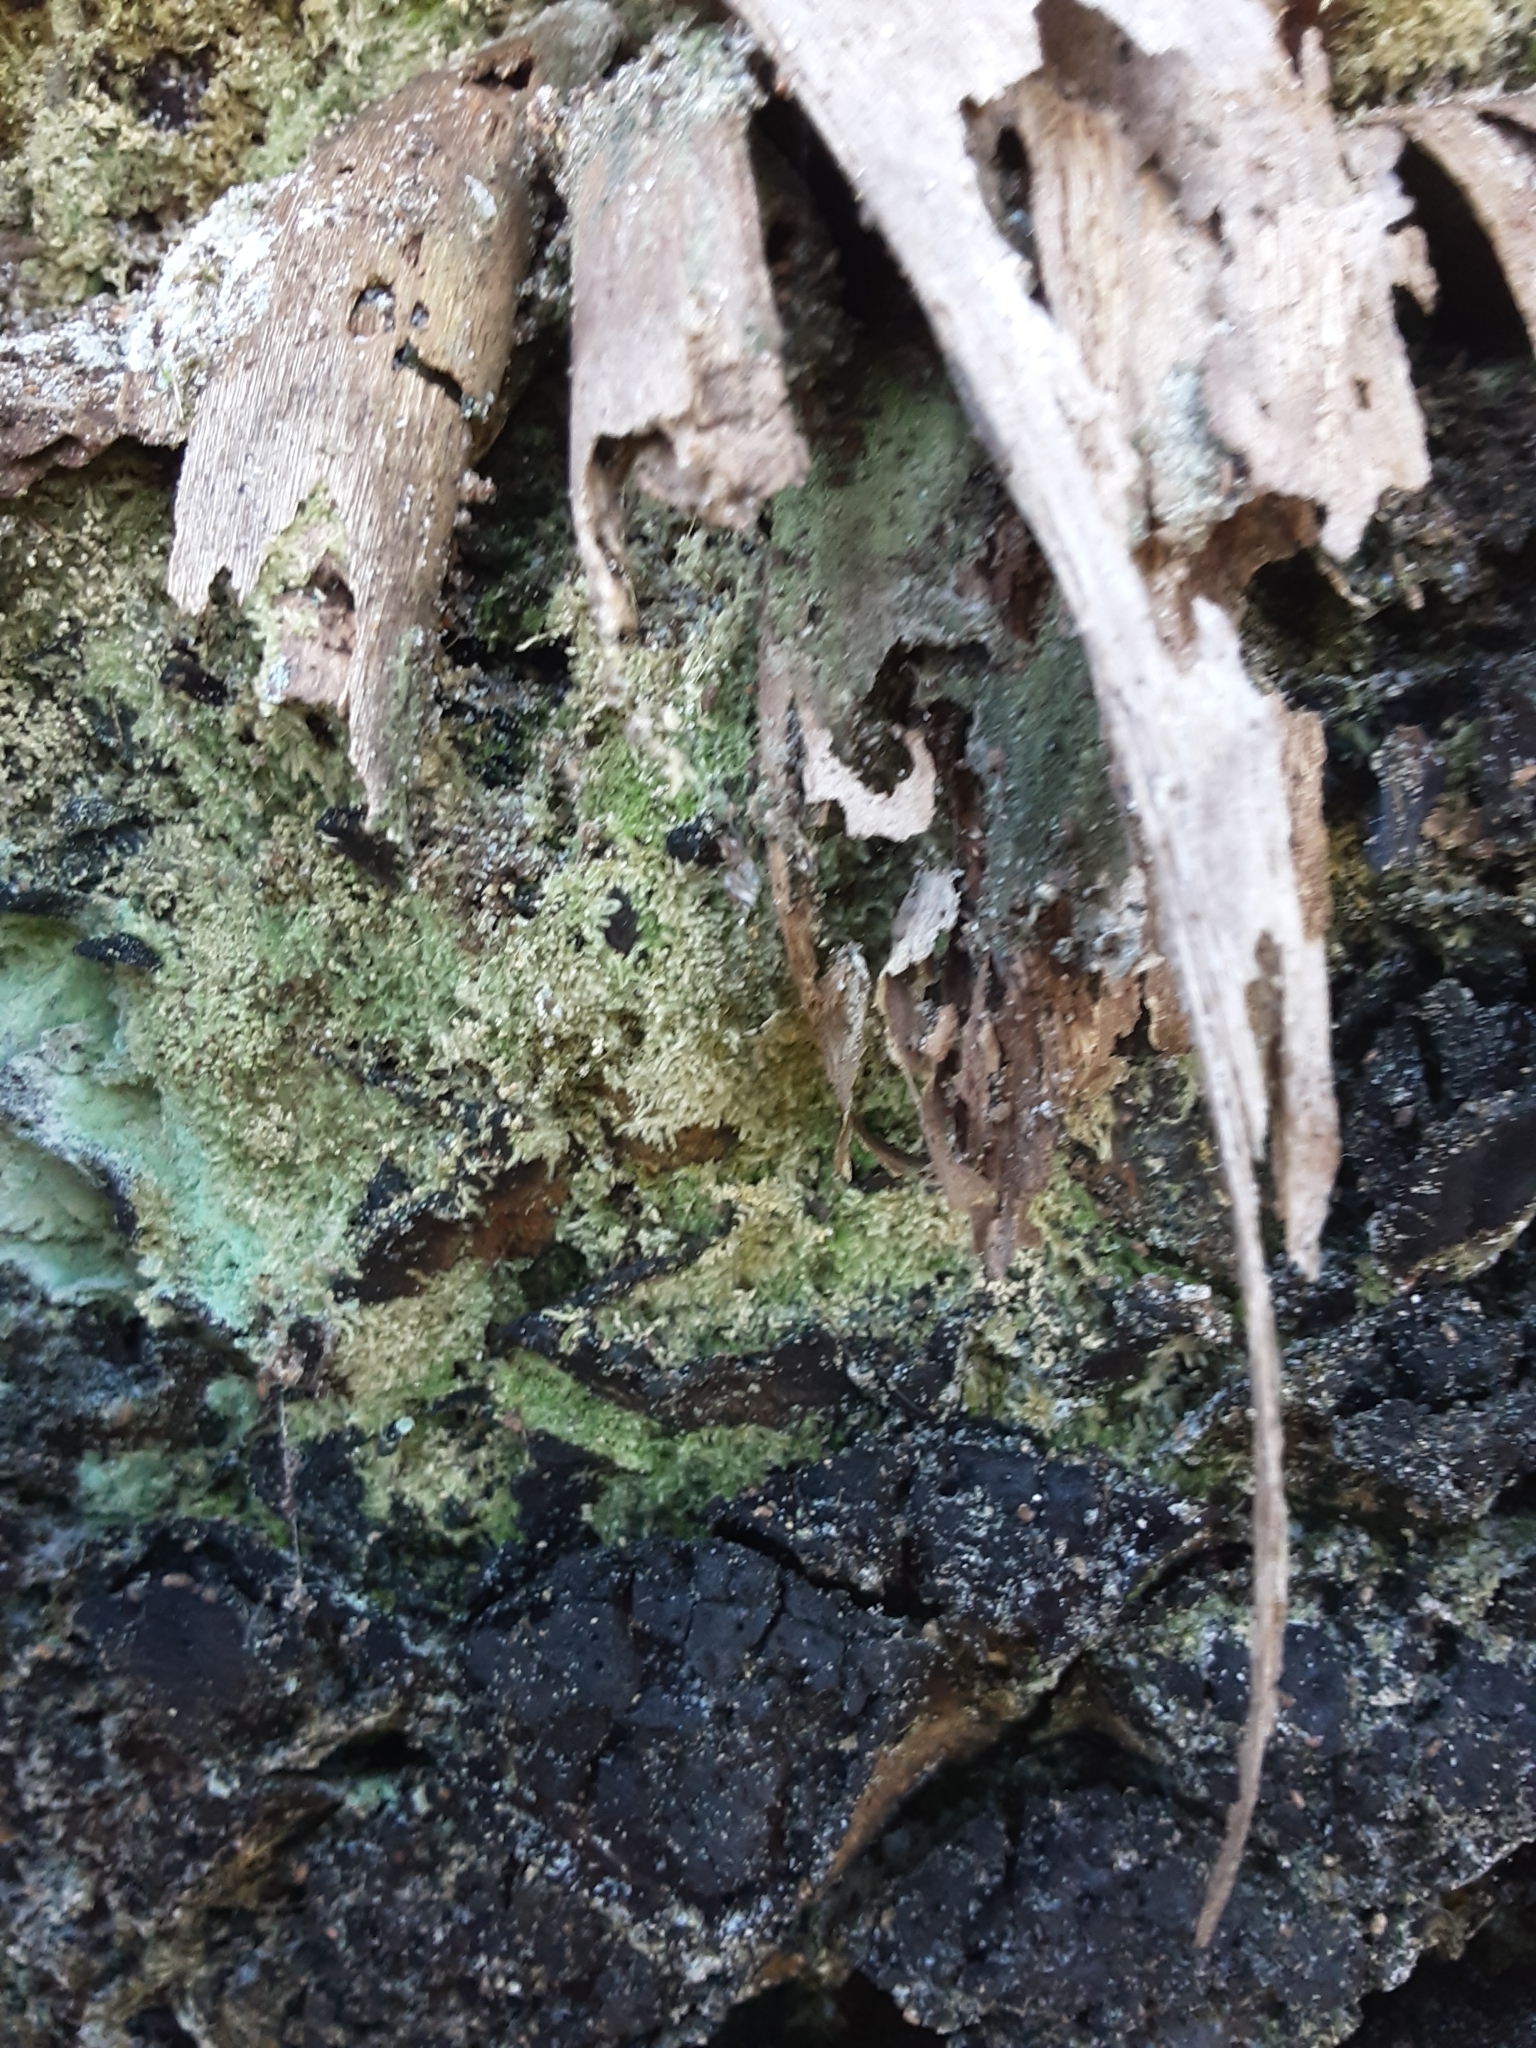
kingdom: Plantae
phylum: Bryophyta
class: Bryopsida
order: Hypnales
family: Fabroniaceae
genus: Fabronia
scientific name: Fabronia hampeana
